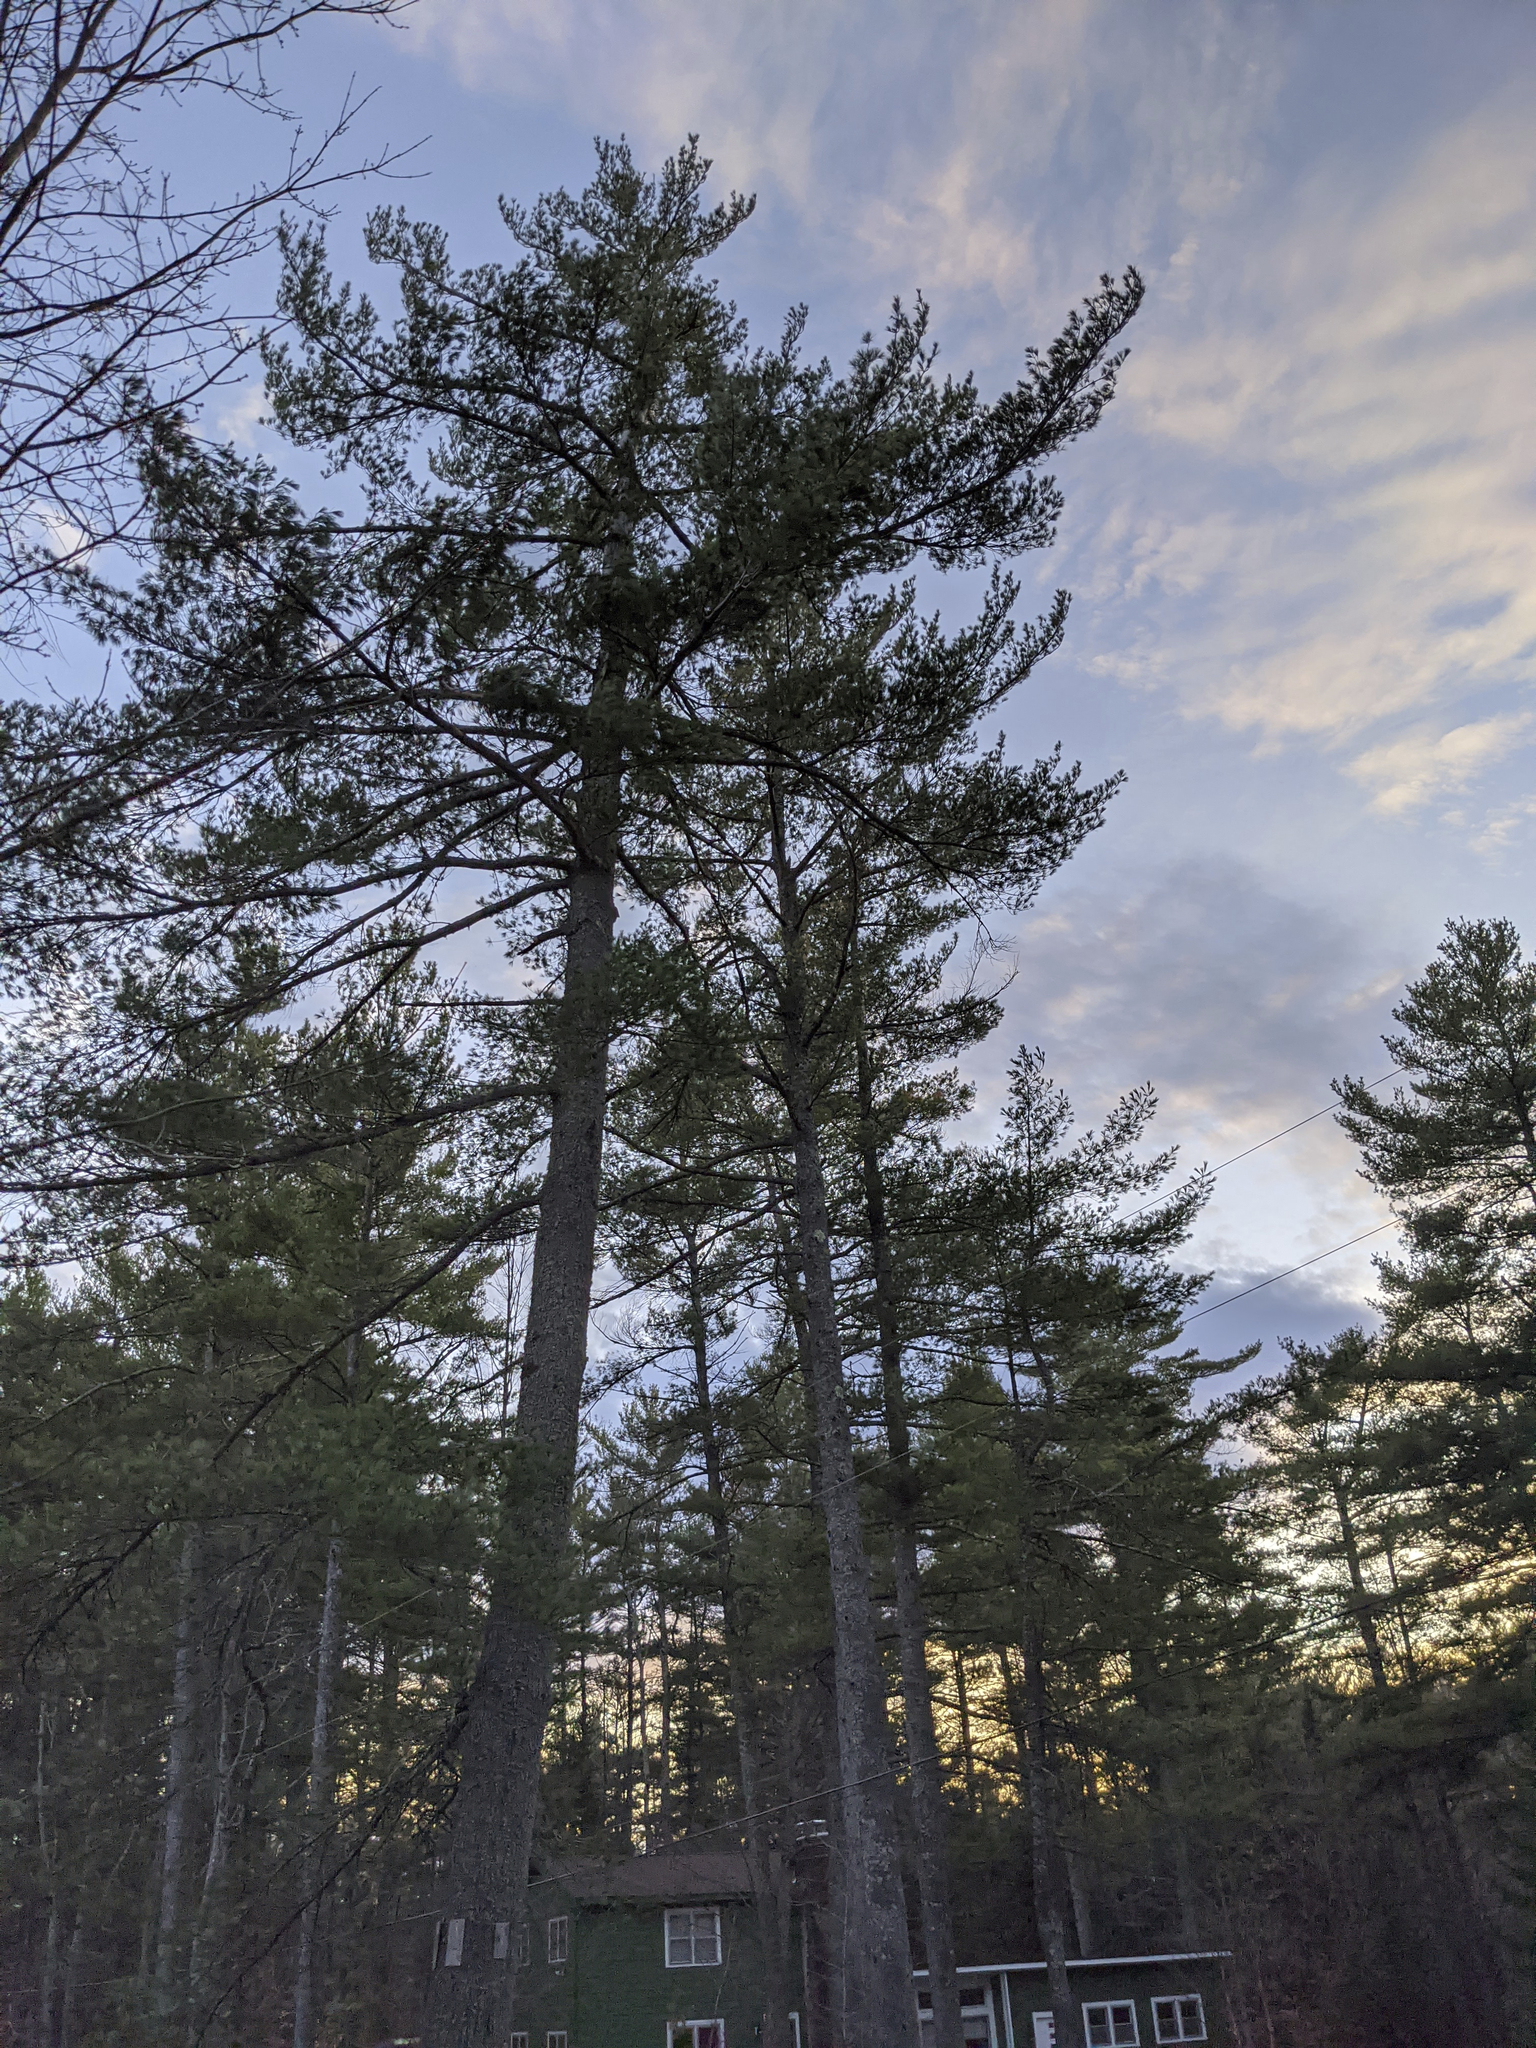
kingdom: Plantae
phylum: Tracheophyta
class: Pinopsida
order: Pinales
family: Pinaceae
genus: Pinus
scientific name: Pinus strobus
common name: Weymouth pine
